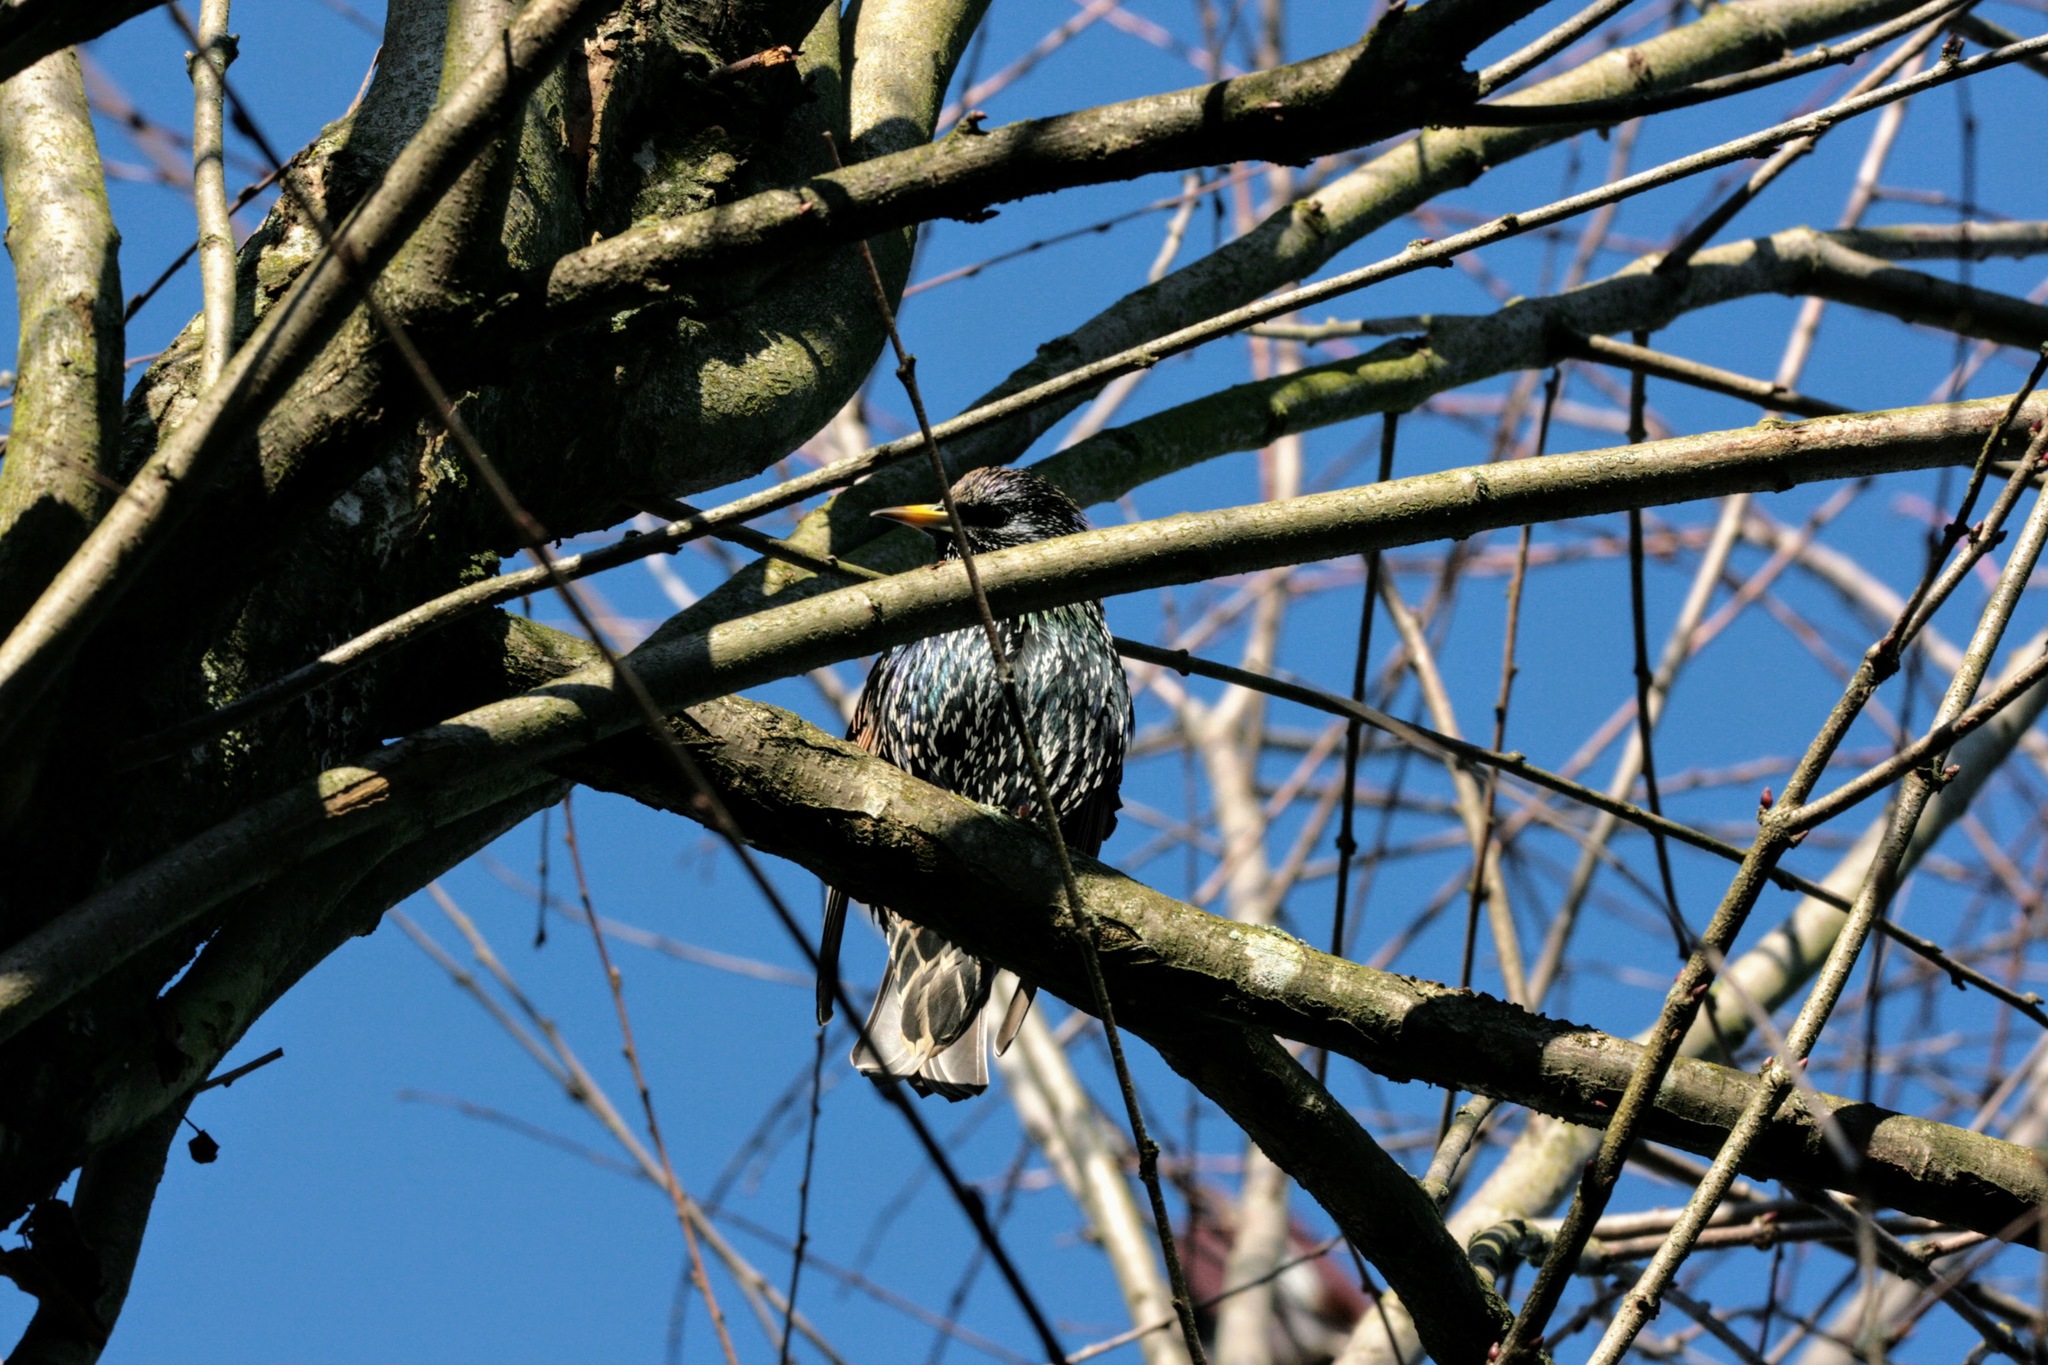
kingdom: Animalia
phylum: Chordata
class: Aves
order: Passeriformes
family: Sturnidae
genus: Sturnus
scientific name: Sturnus vulgaris
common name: Common starling
